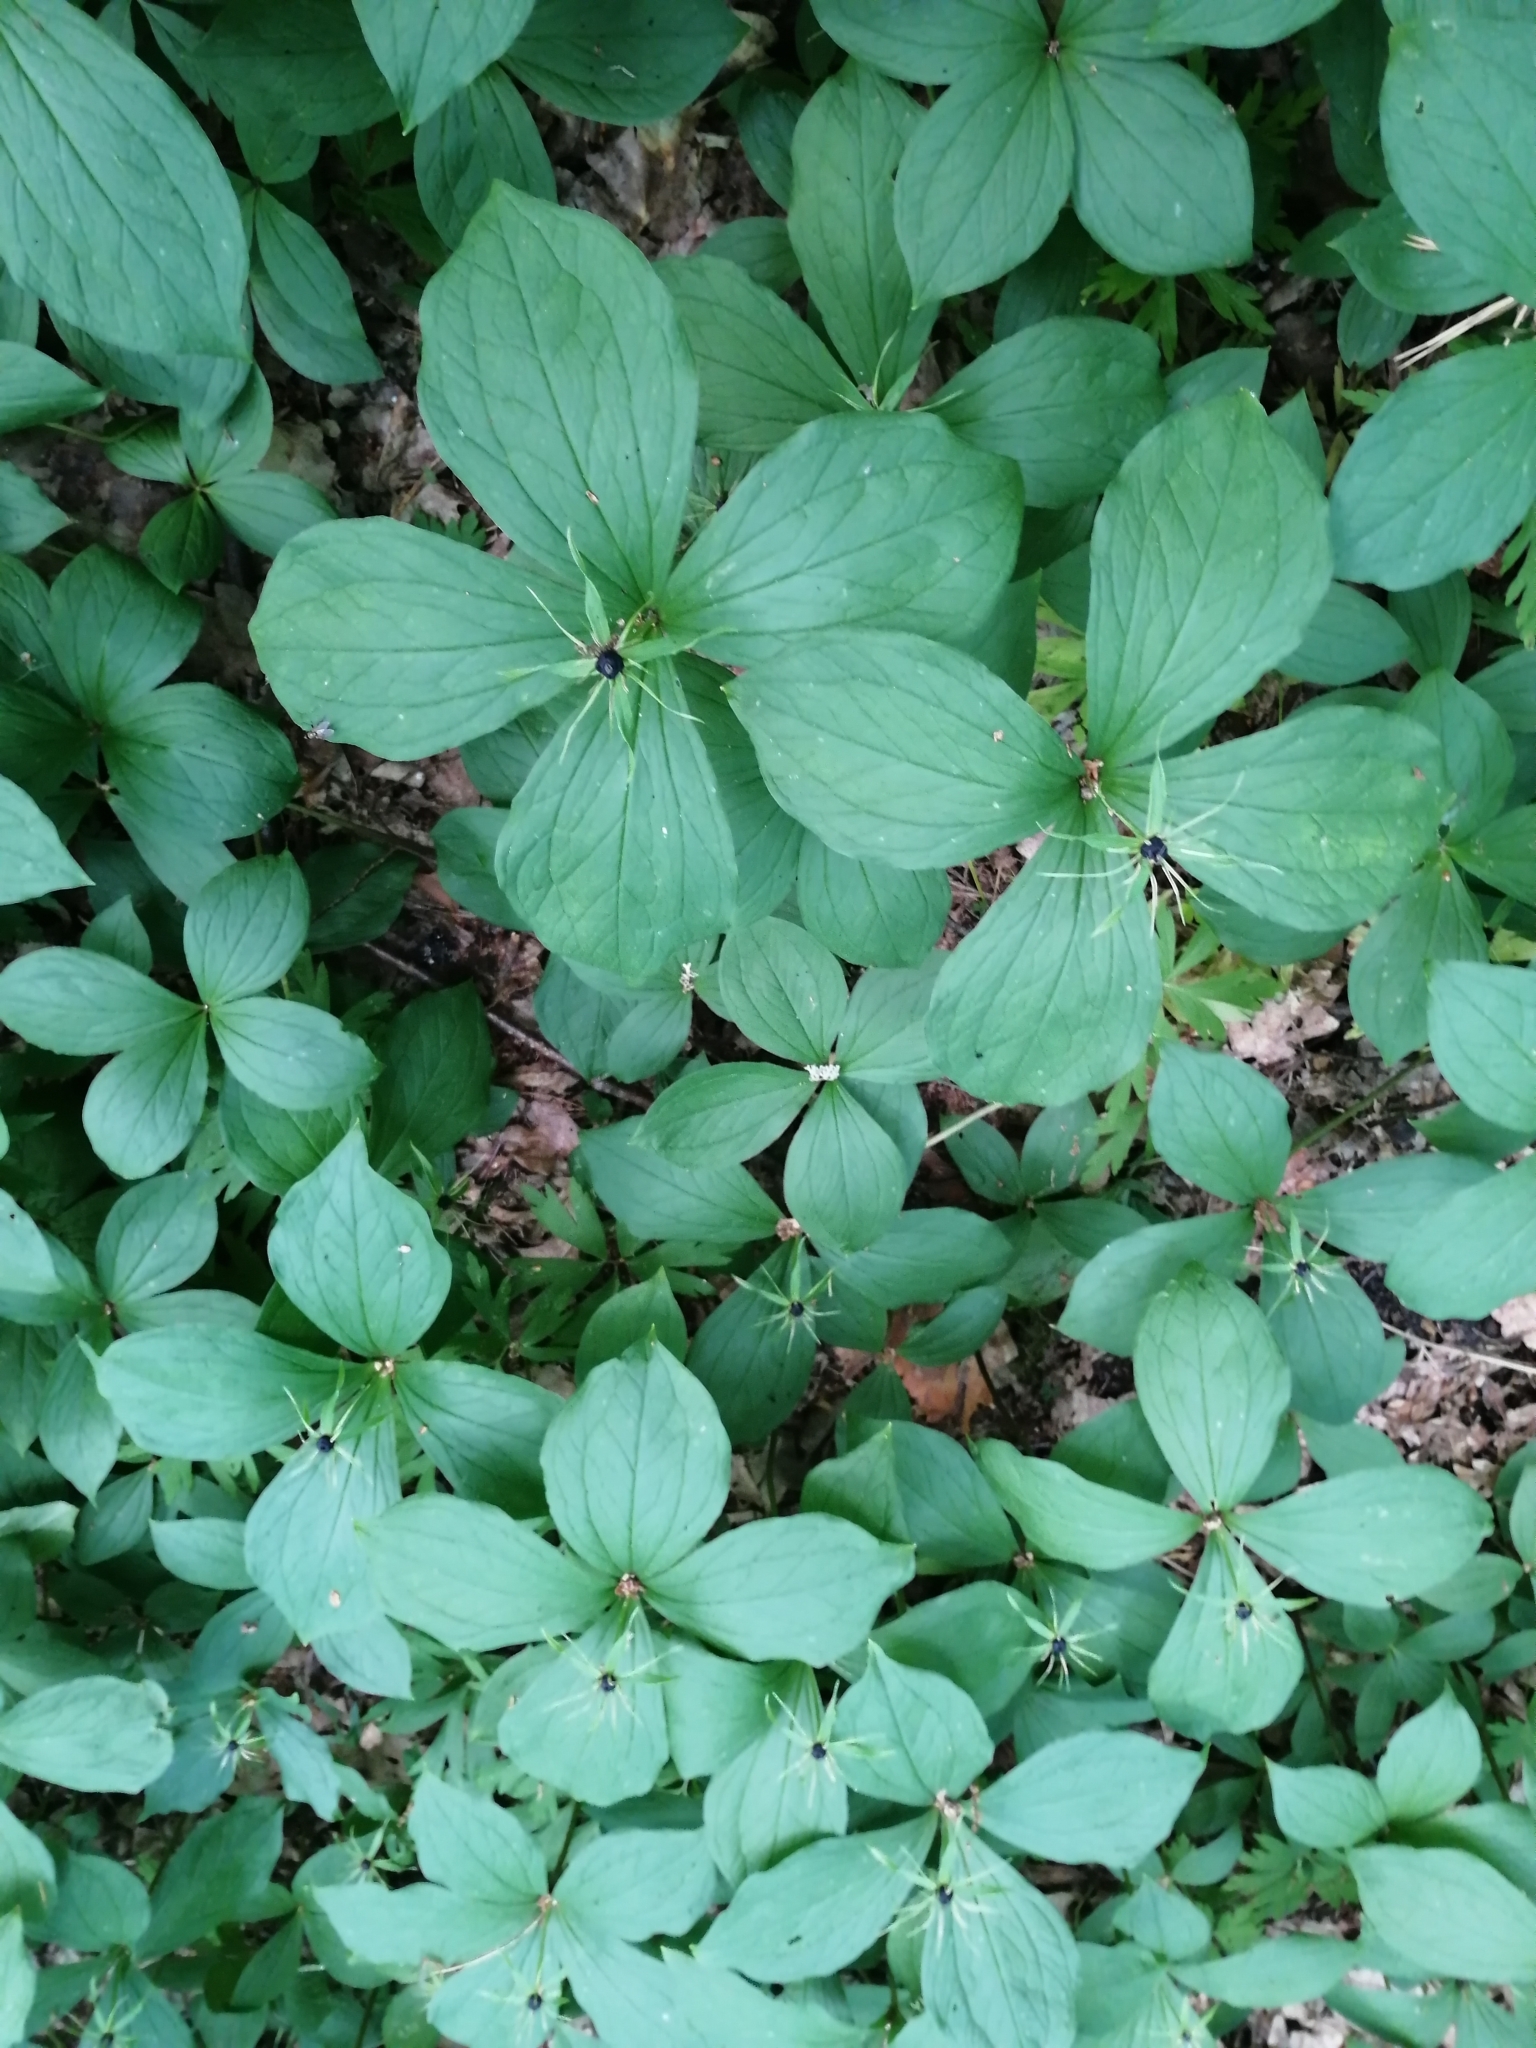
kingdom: Plantae
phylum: Tracheophyta
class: Liliopsida
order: Liliales
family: Melanthiaceae
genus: Paris
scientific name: Paris quadrifolia
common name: Herb-paris
